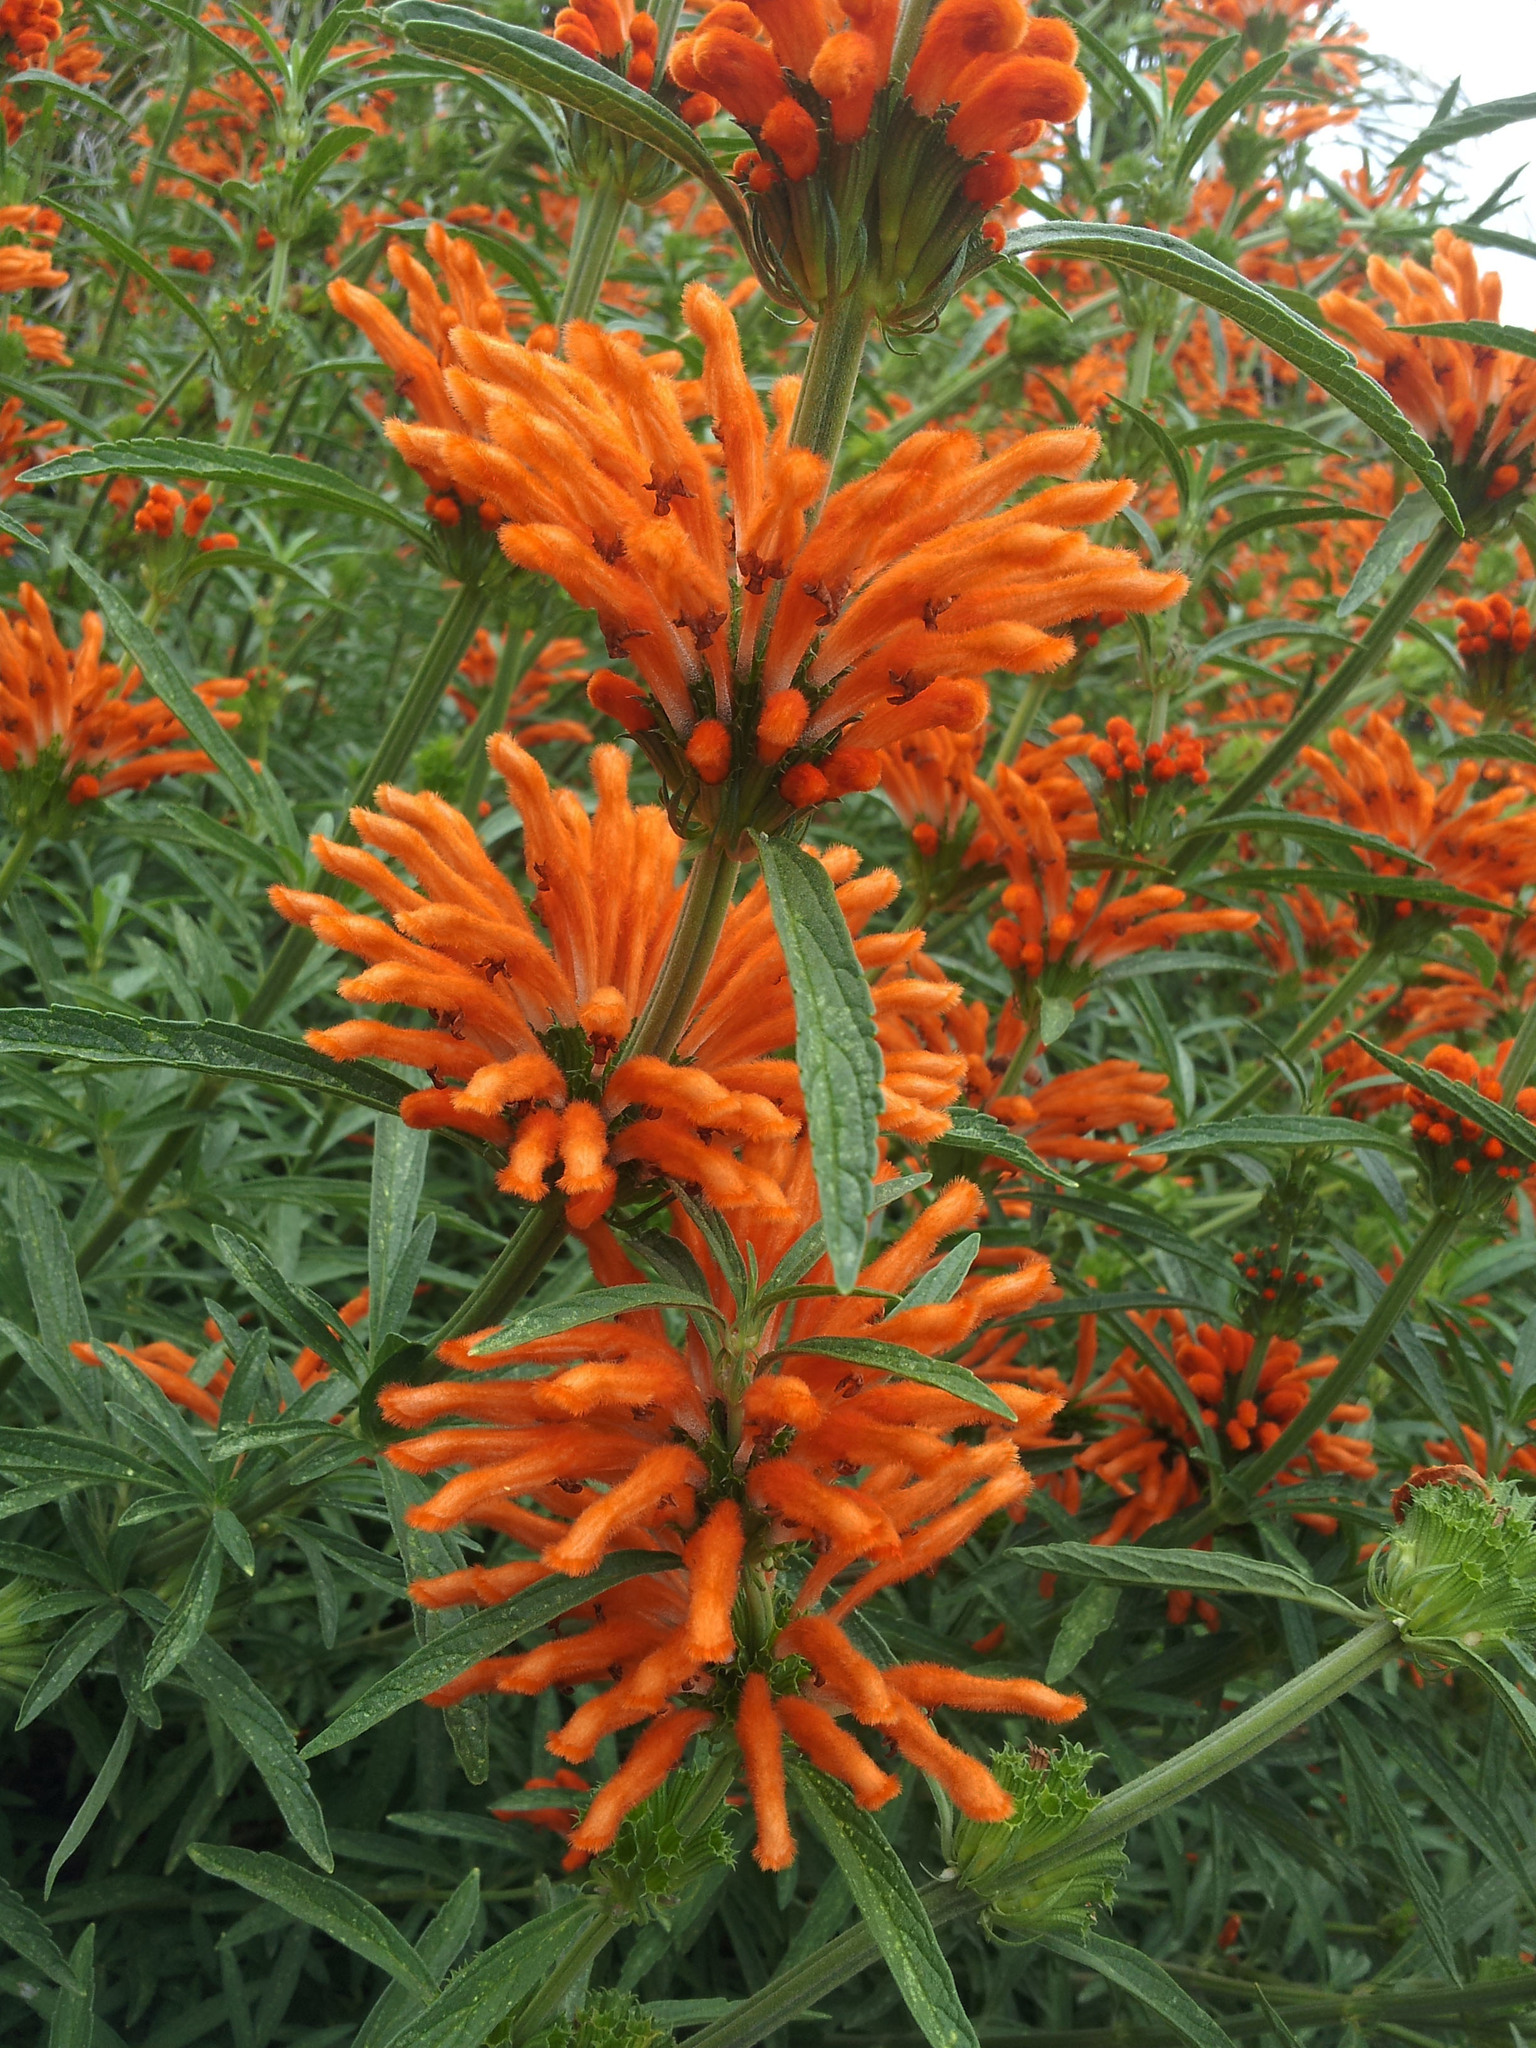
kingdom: Plantae
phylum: Tracheophyta
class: Magnoliopsida
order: Lamiales
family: Lamiaceae
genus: Leonotis
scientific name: Leonotis leonurus
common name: Lion's ear
